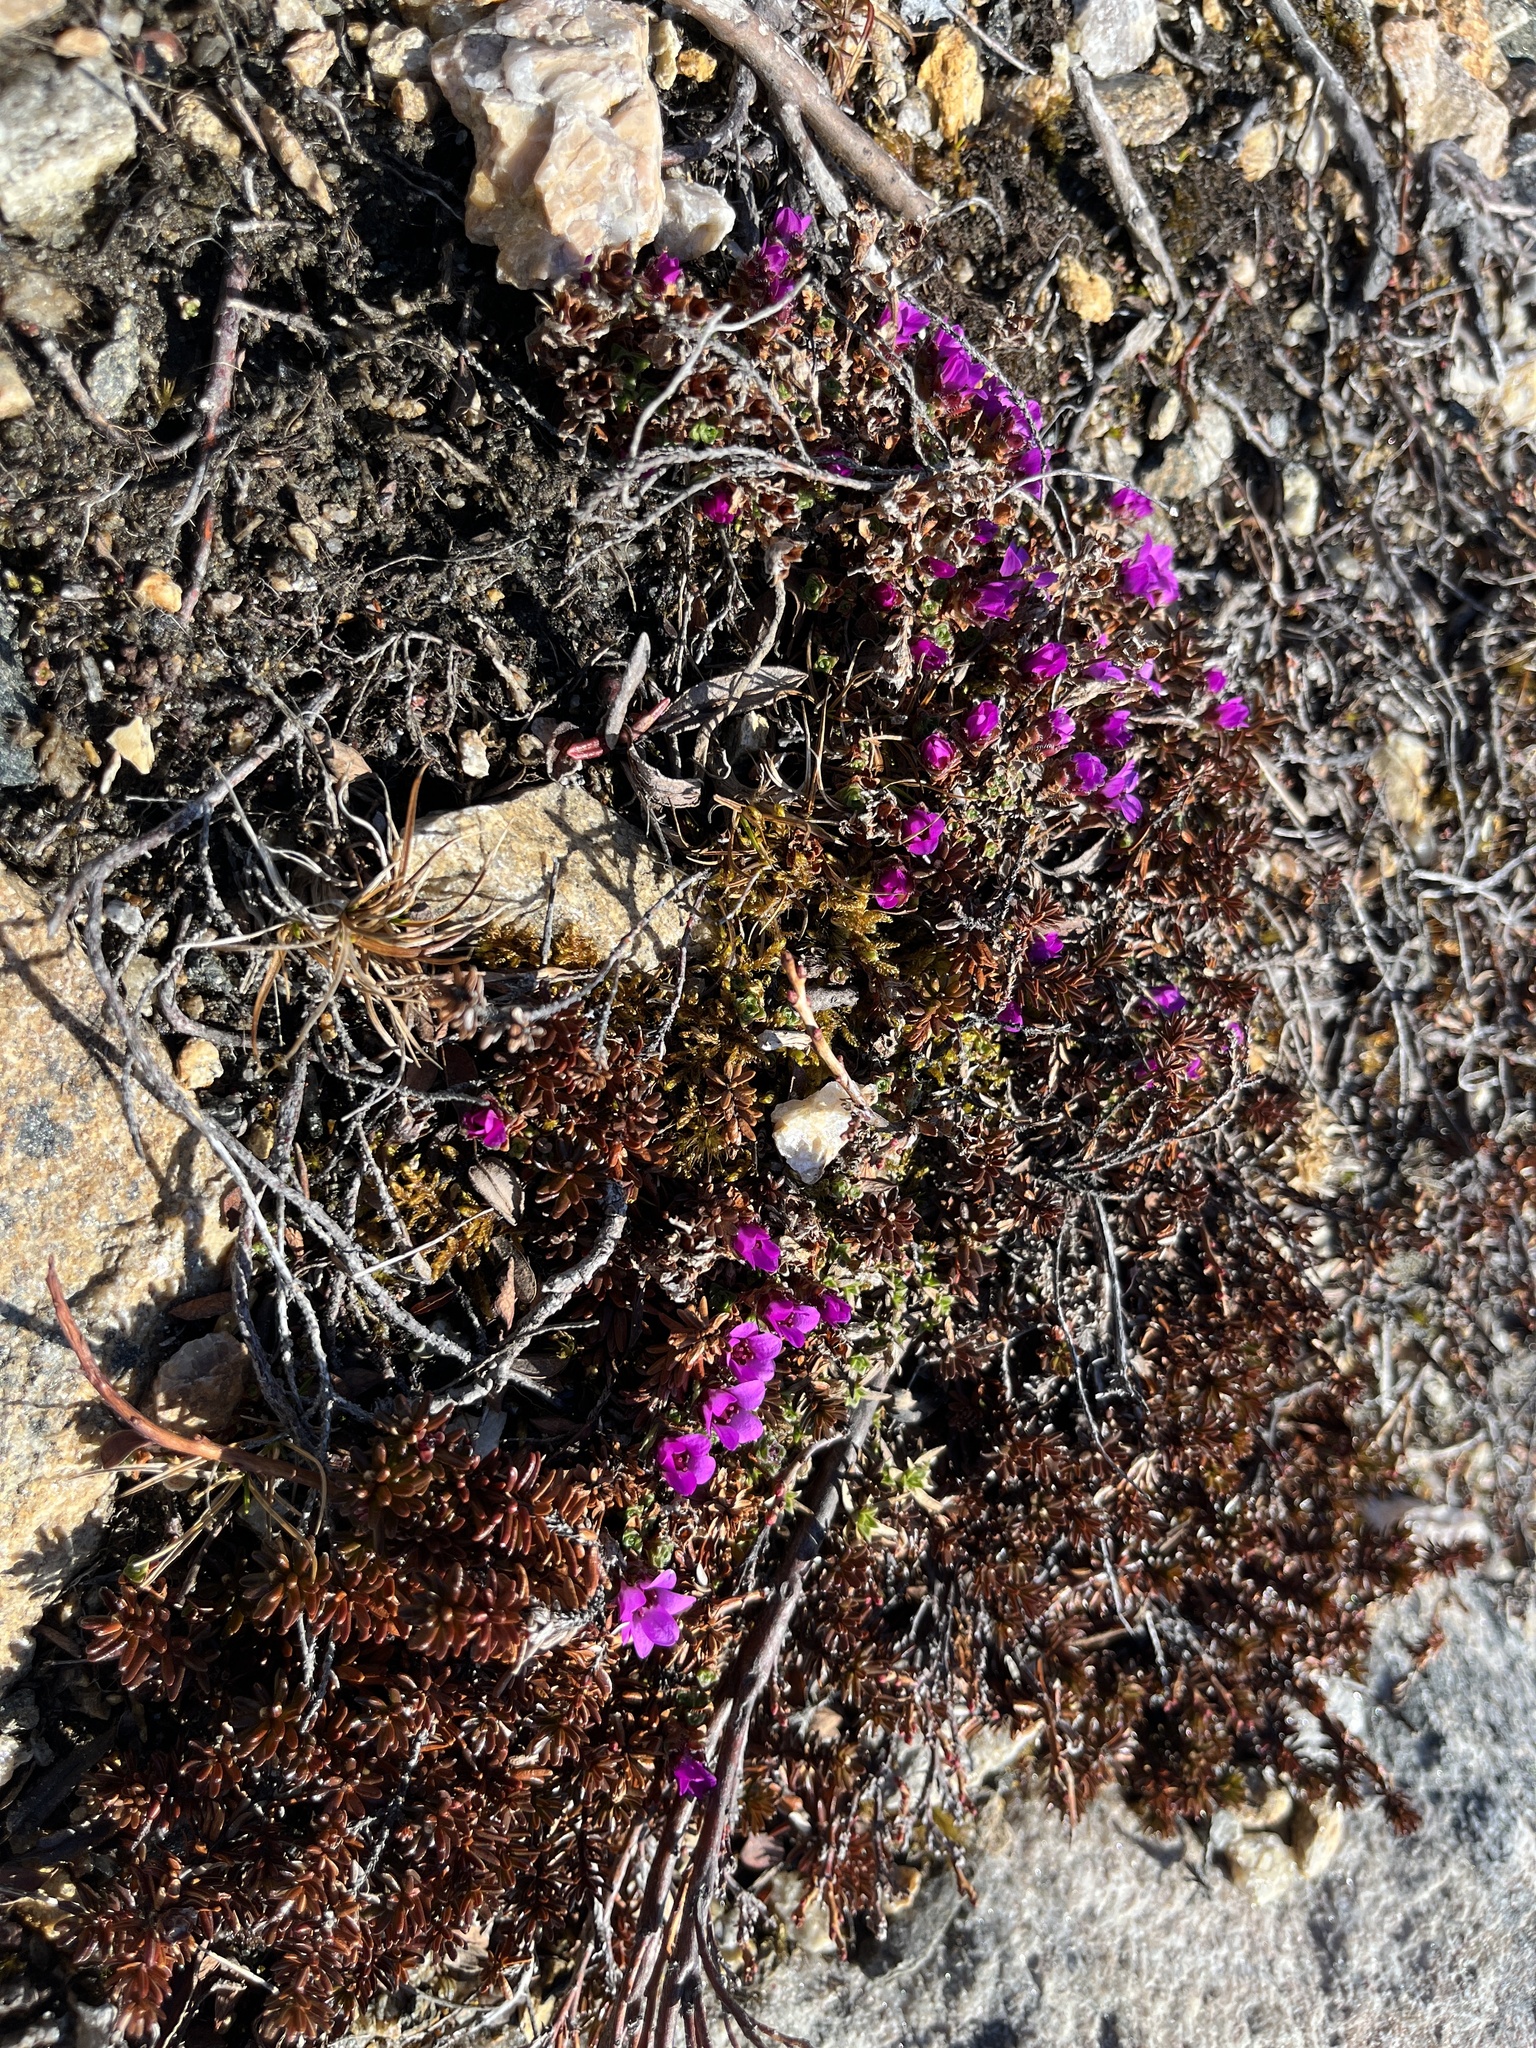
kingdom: Plantae
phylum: Tracheophyta
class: Magnoliopsida
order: Saxifragales
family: Saxifragaceae
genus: Saxifraga
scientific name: Saxifraga oppositifolia
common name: Purple saxifrage
